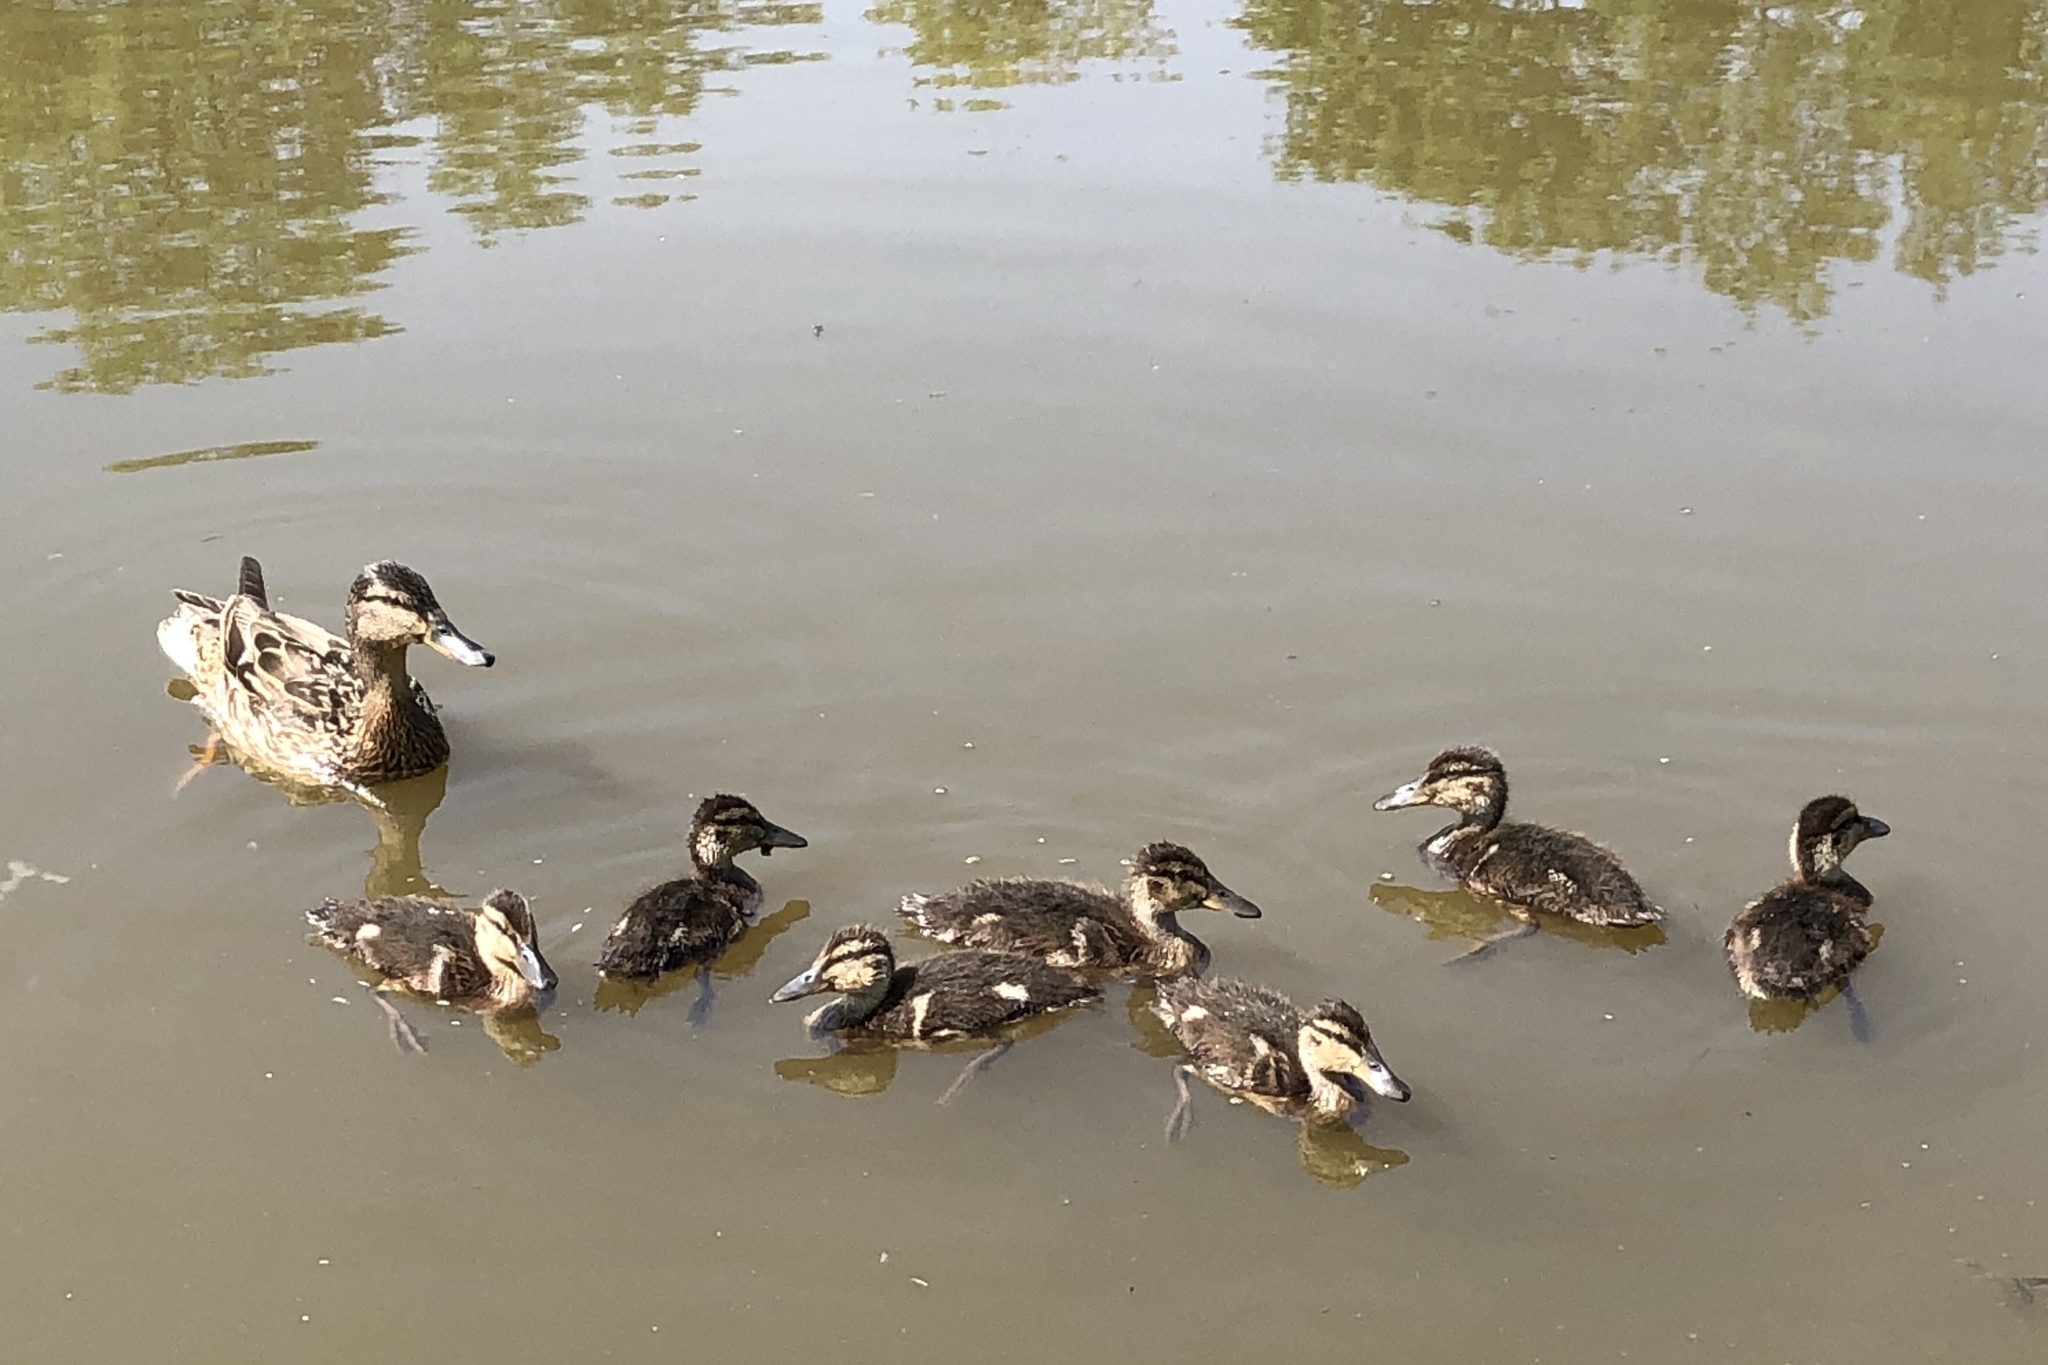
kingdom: Animalia
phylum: Chordata
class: Aves
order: Anseriformes
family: Anatidae
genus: Anas
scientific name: Anas platyrhynchos
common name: Mallard
